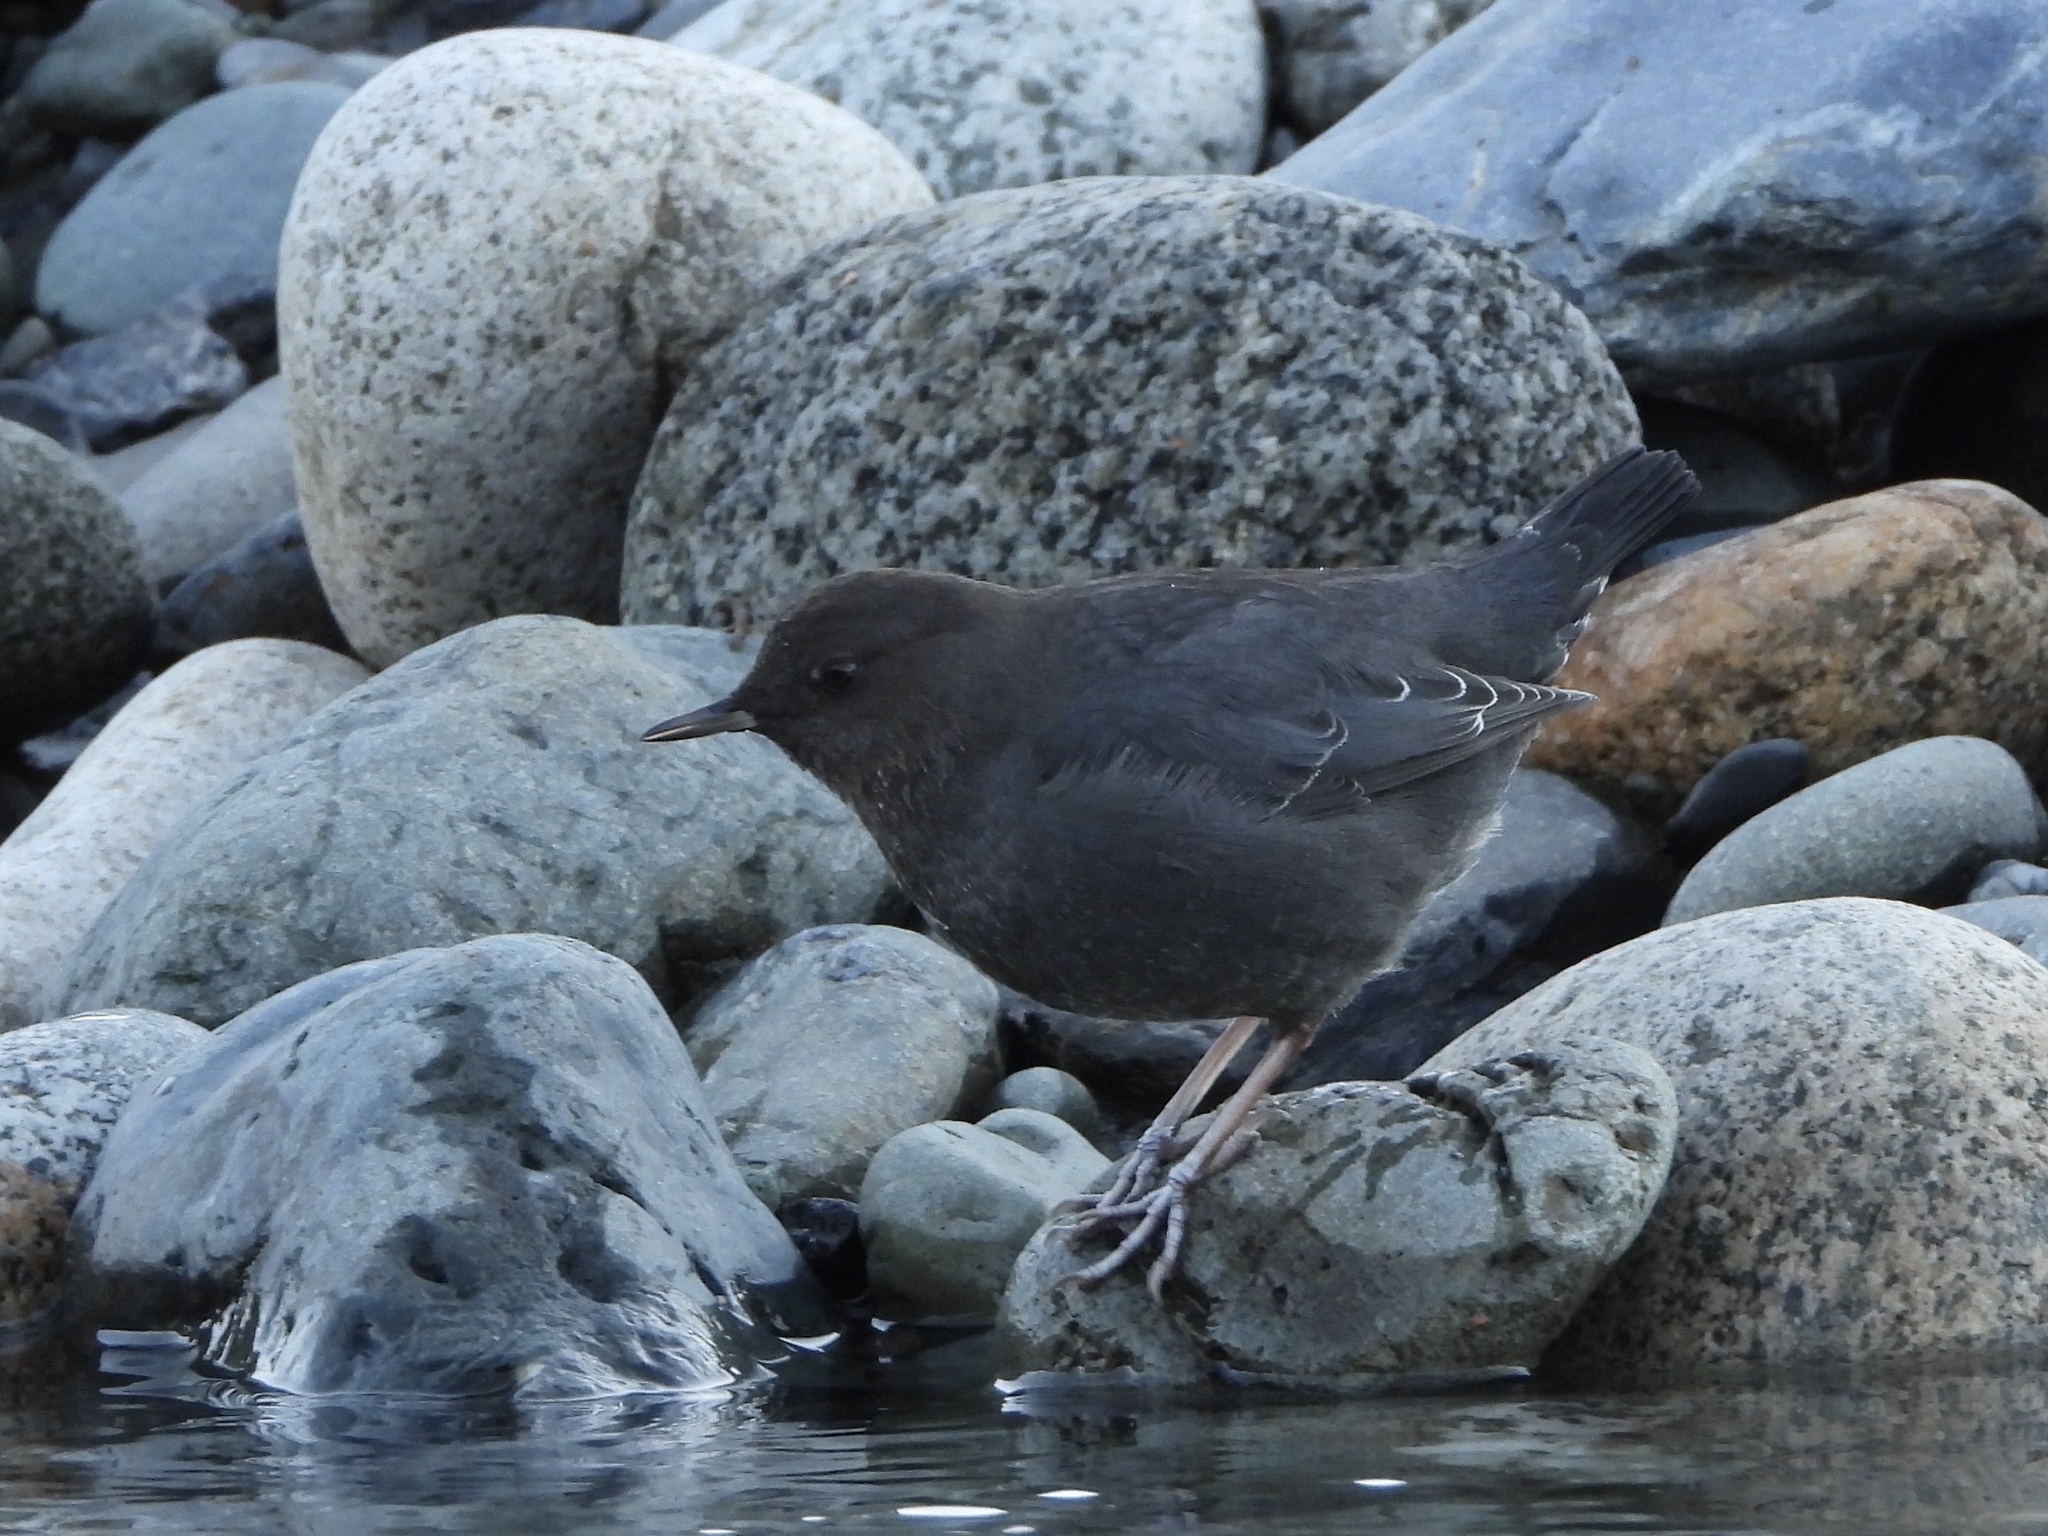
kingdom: Animalia
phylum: Chordata
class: Aves
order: Passeriformes
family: Cinclidae
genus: Cinclus
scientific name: Cinclus mexicanus
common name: American dipper
